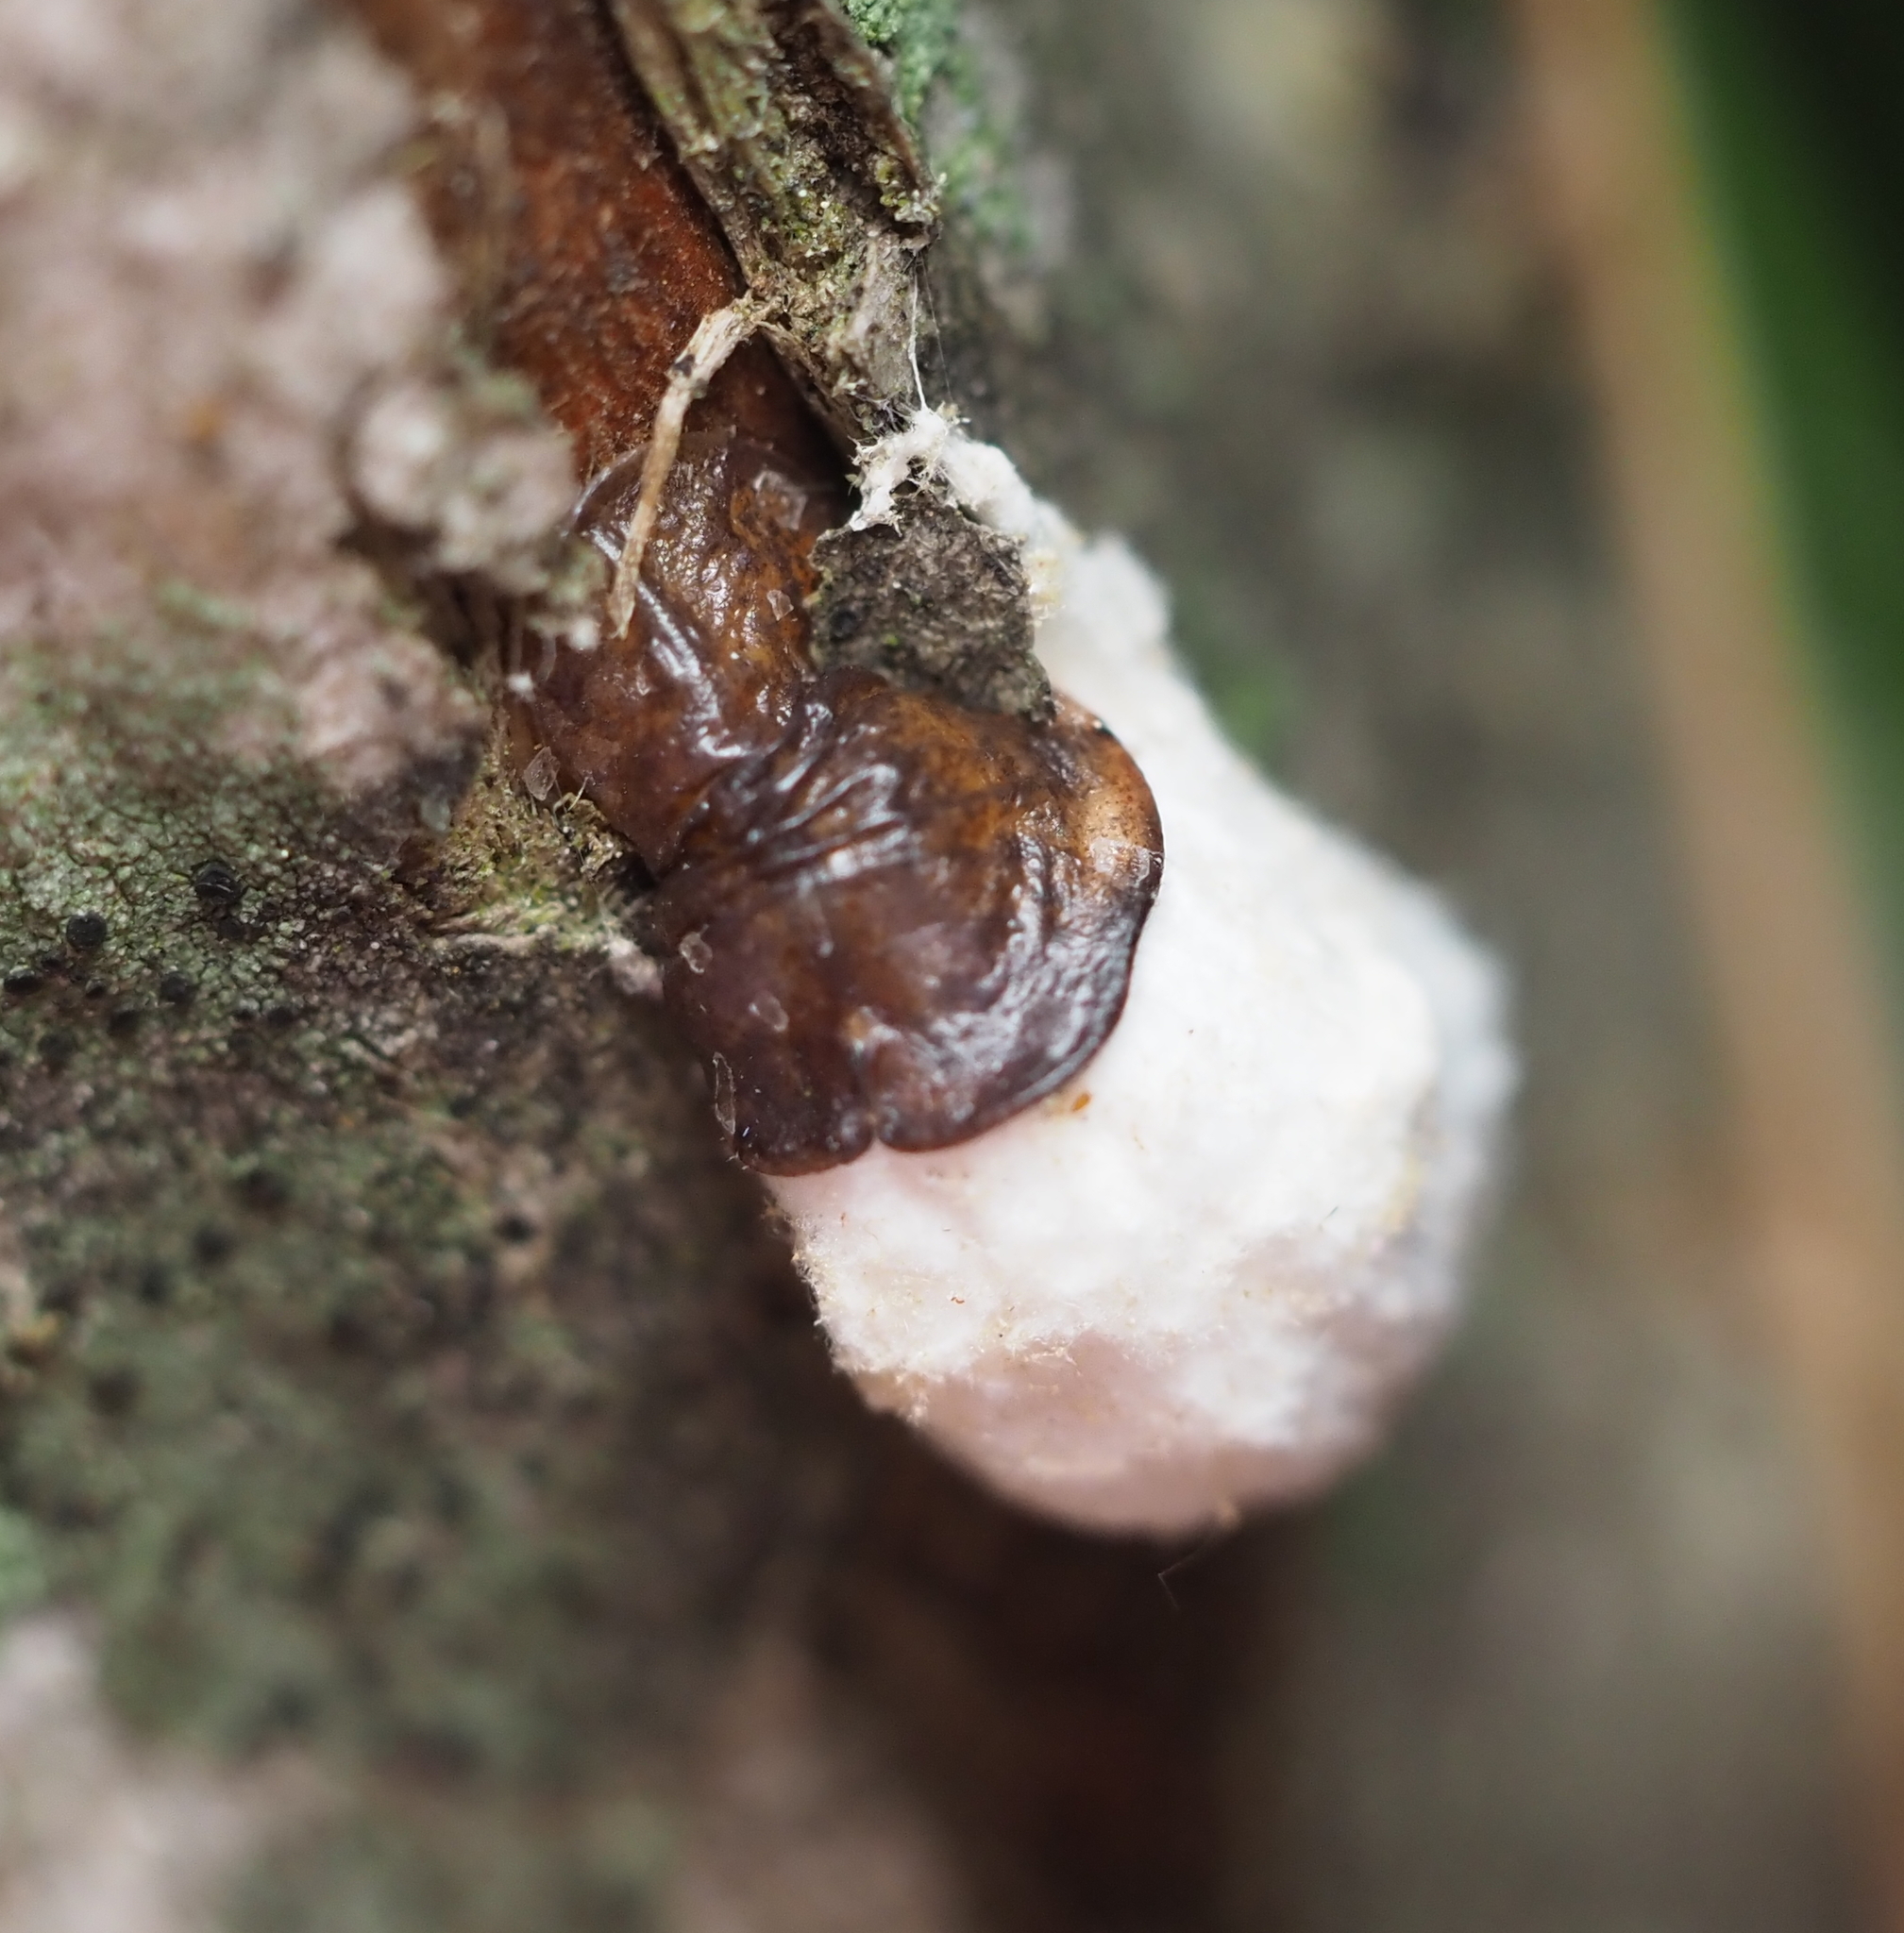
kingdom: Animalia
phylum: Arthropoda
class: Insecta
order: Hemiptera
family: Coccidae
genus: Pulvinaria
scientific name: Pulvinaria
